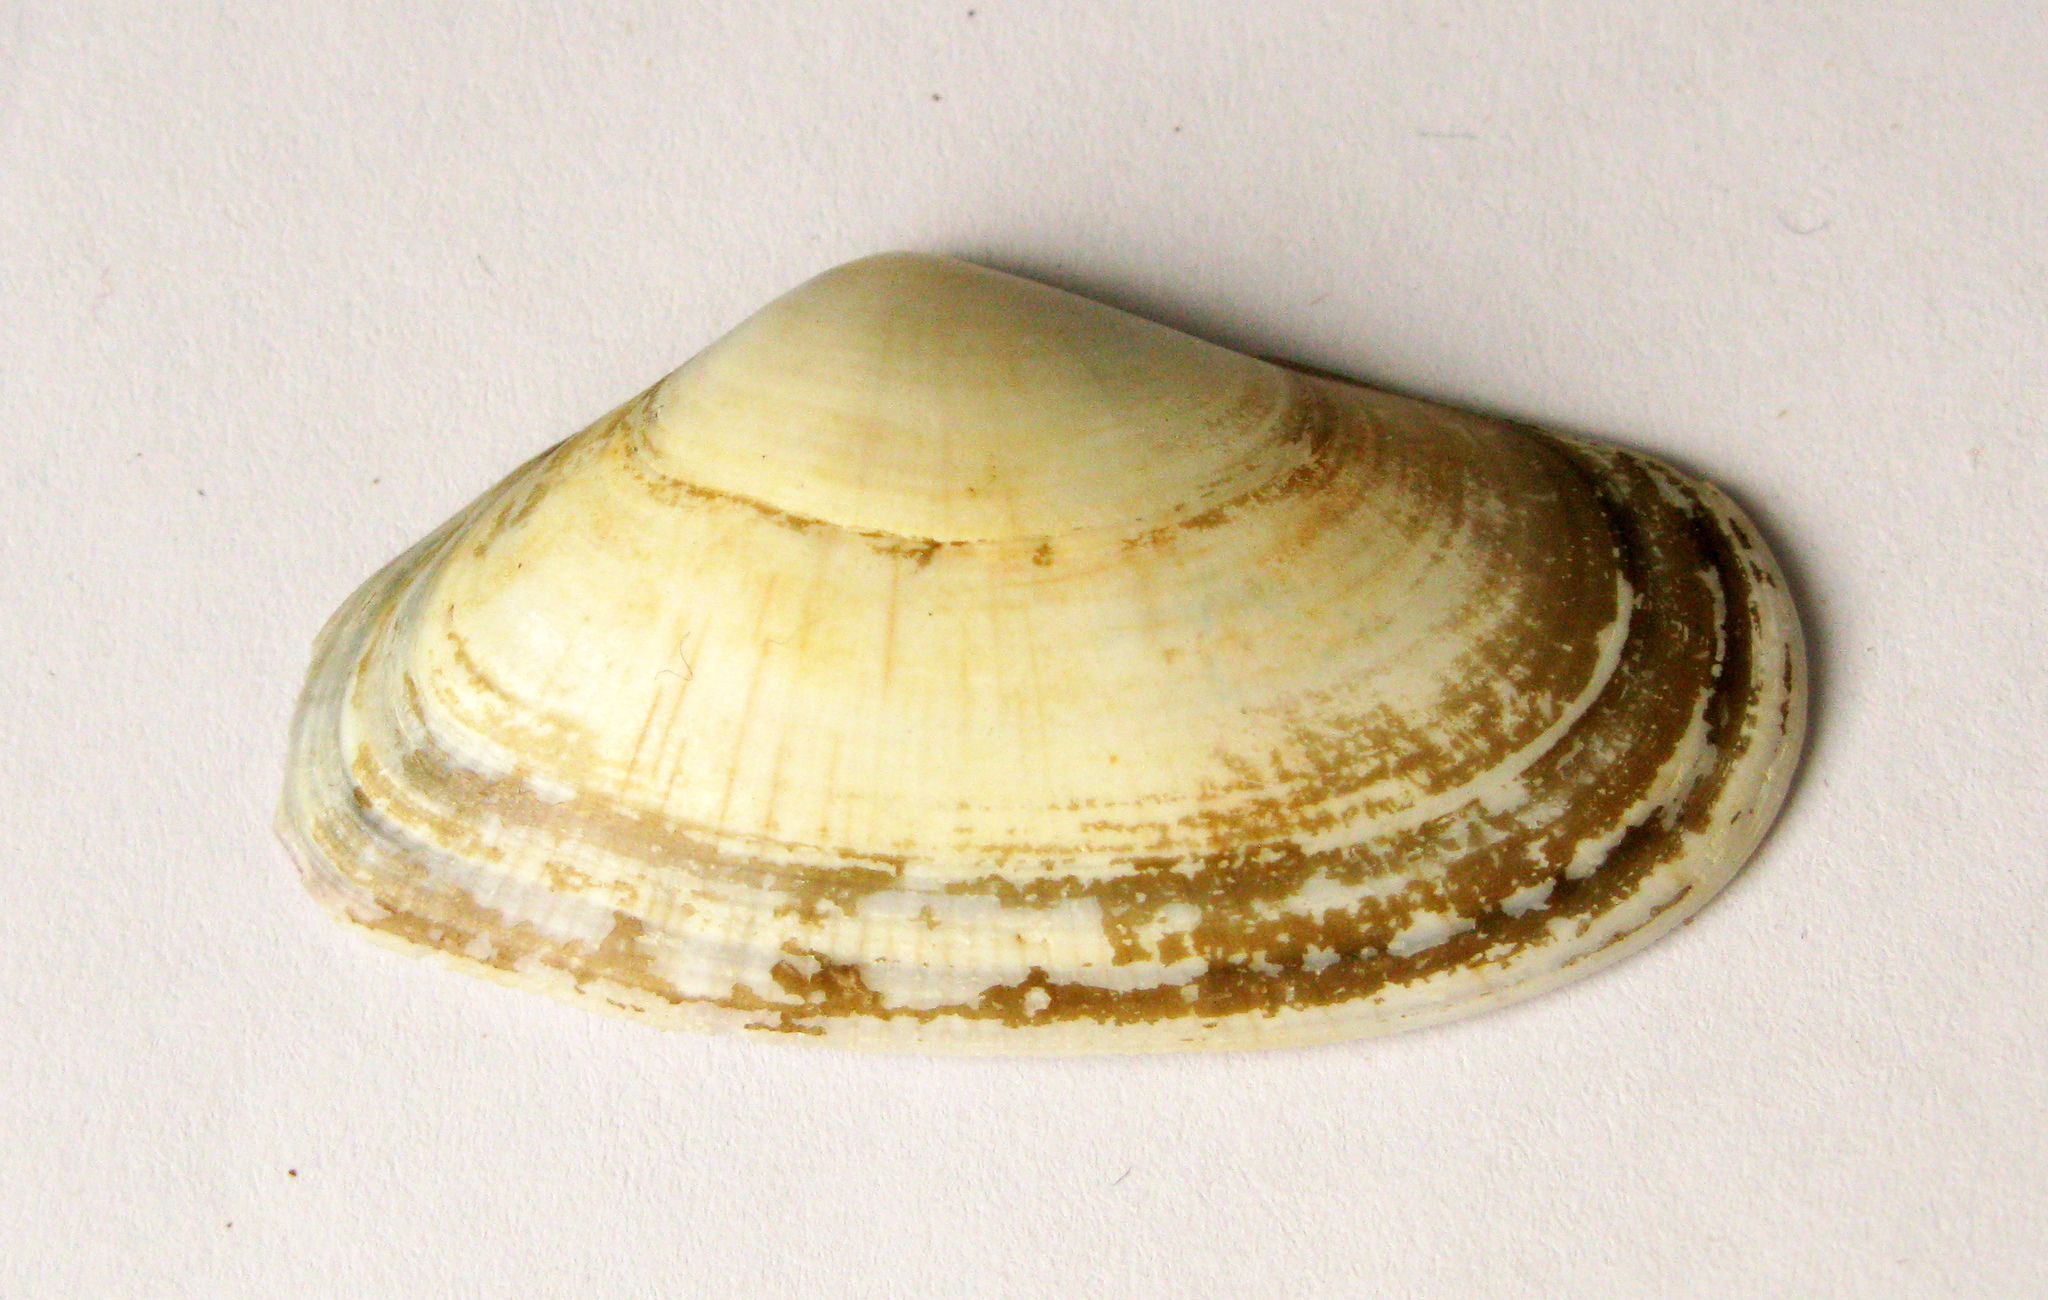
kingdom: Animalia
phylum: Mollusca
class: Bivalvia
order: Cardiida
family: Donacidae
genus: Donax
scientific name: Donax trunculus
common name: Truncate donax
